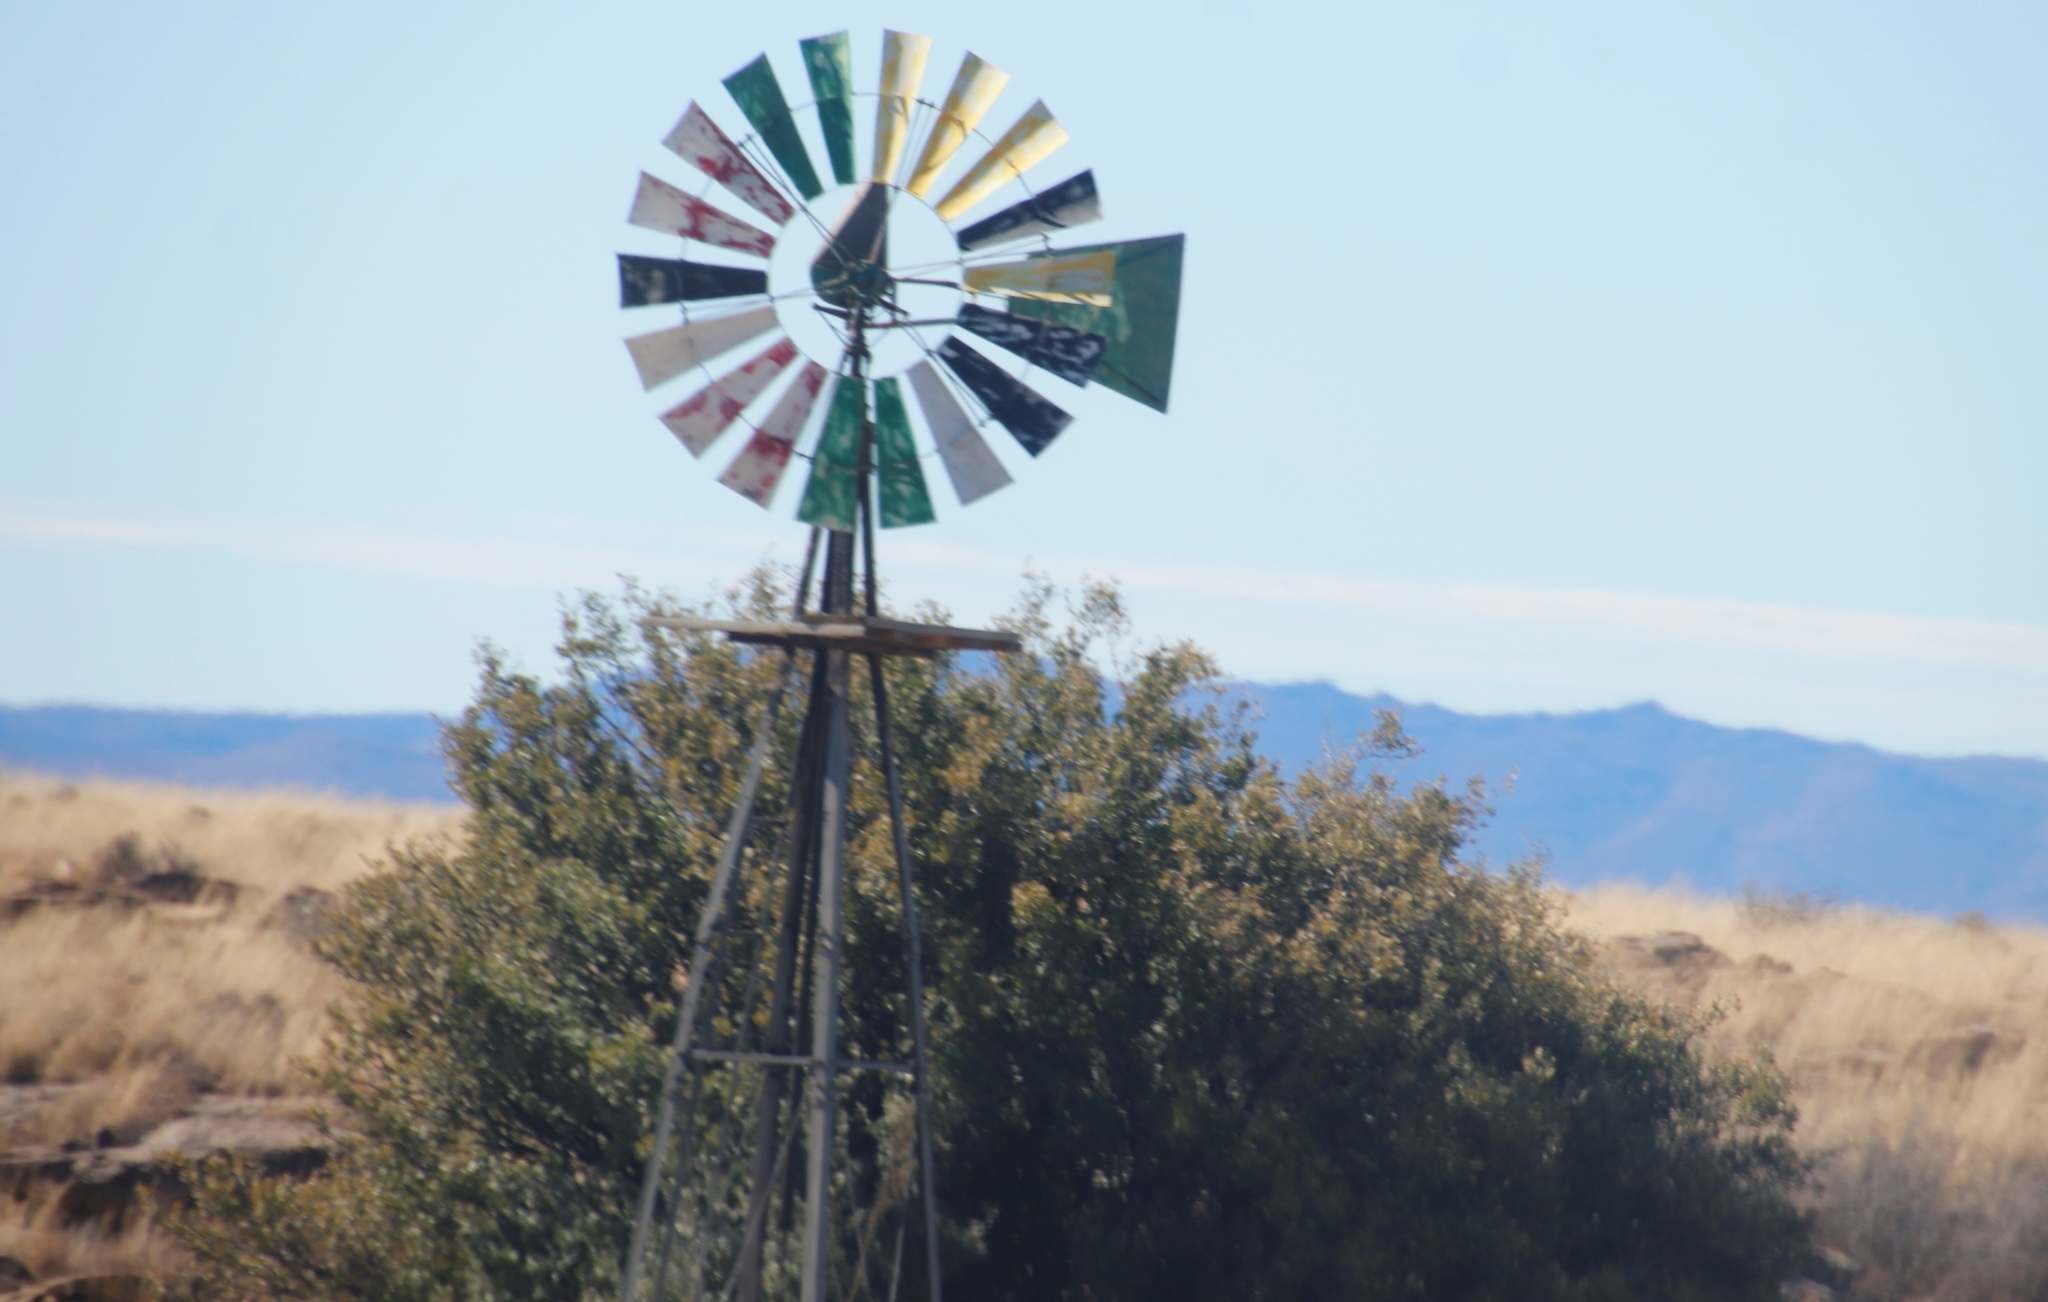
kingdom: Plantae
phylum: Tracheophyta
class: Magnoliopsida
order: Fabales
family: Fabaceae
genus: Vachellia
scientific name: Vachellia karroo
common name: Sweet thorn
